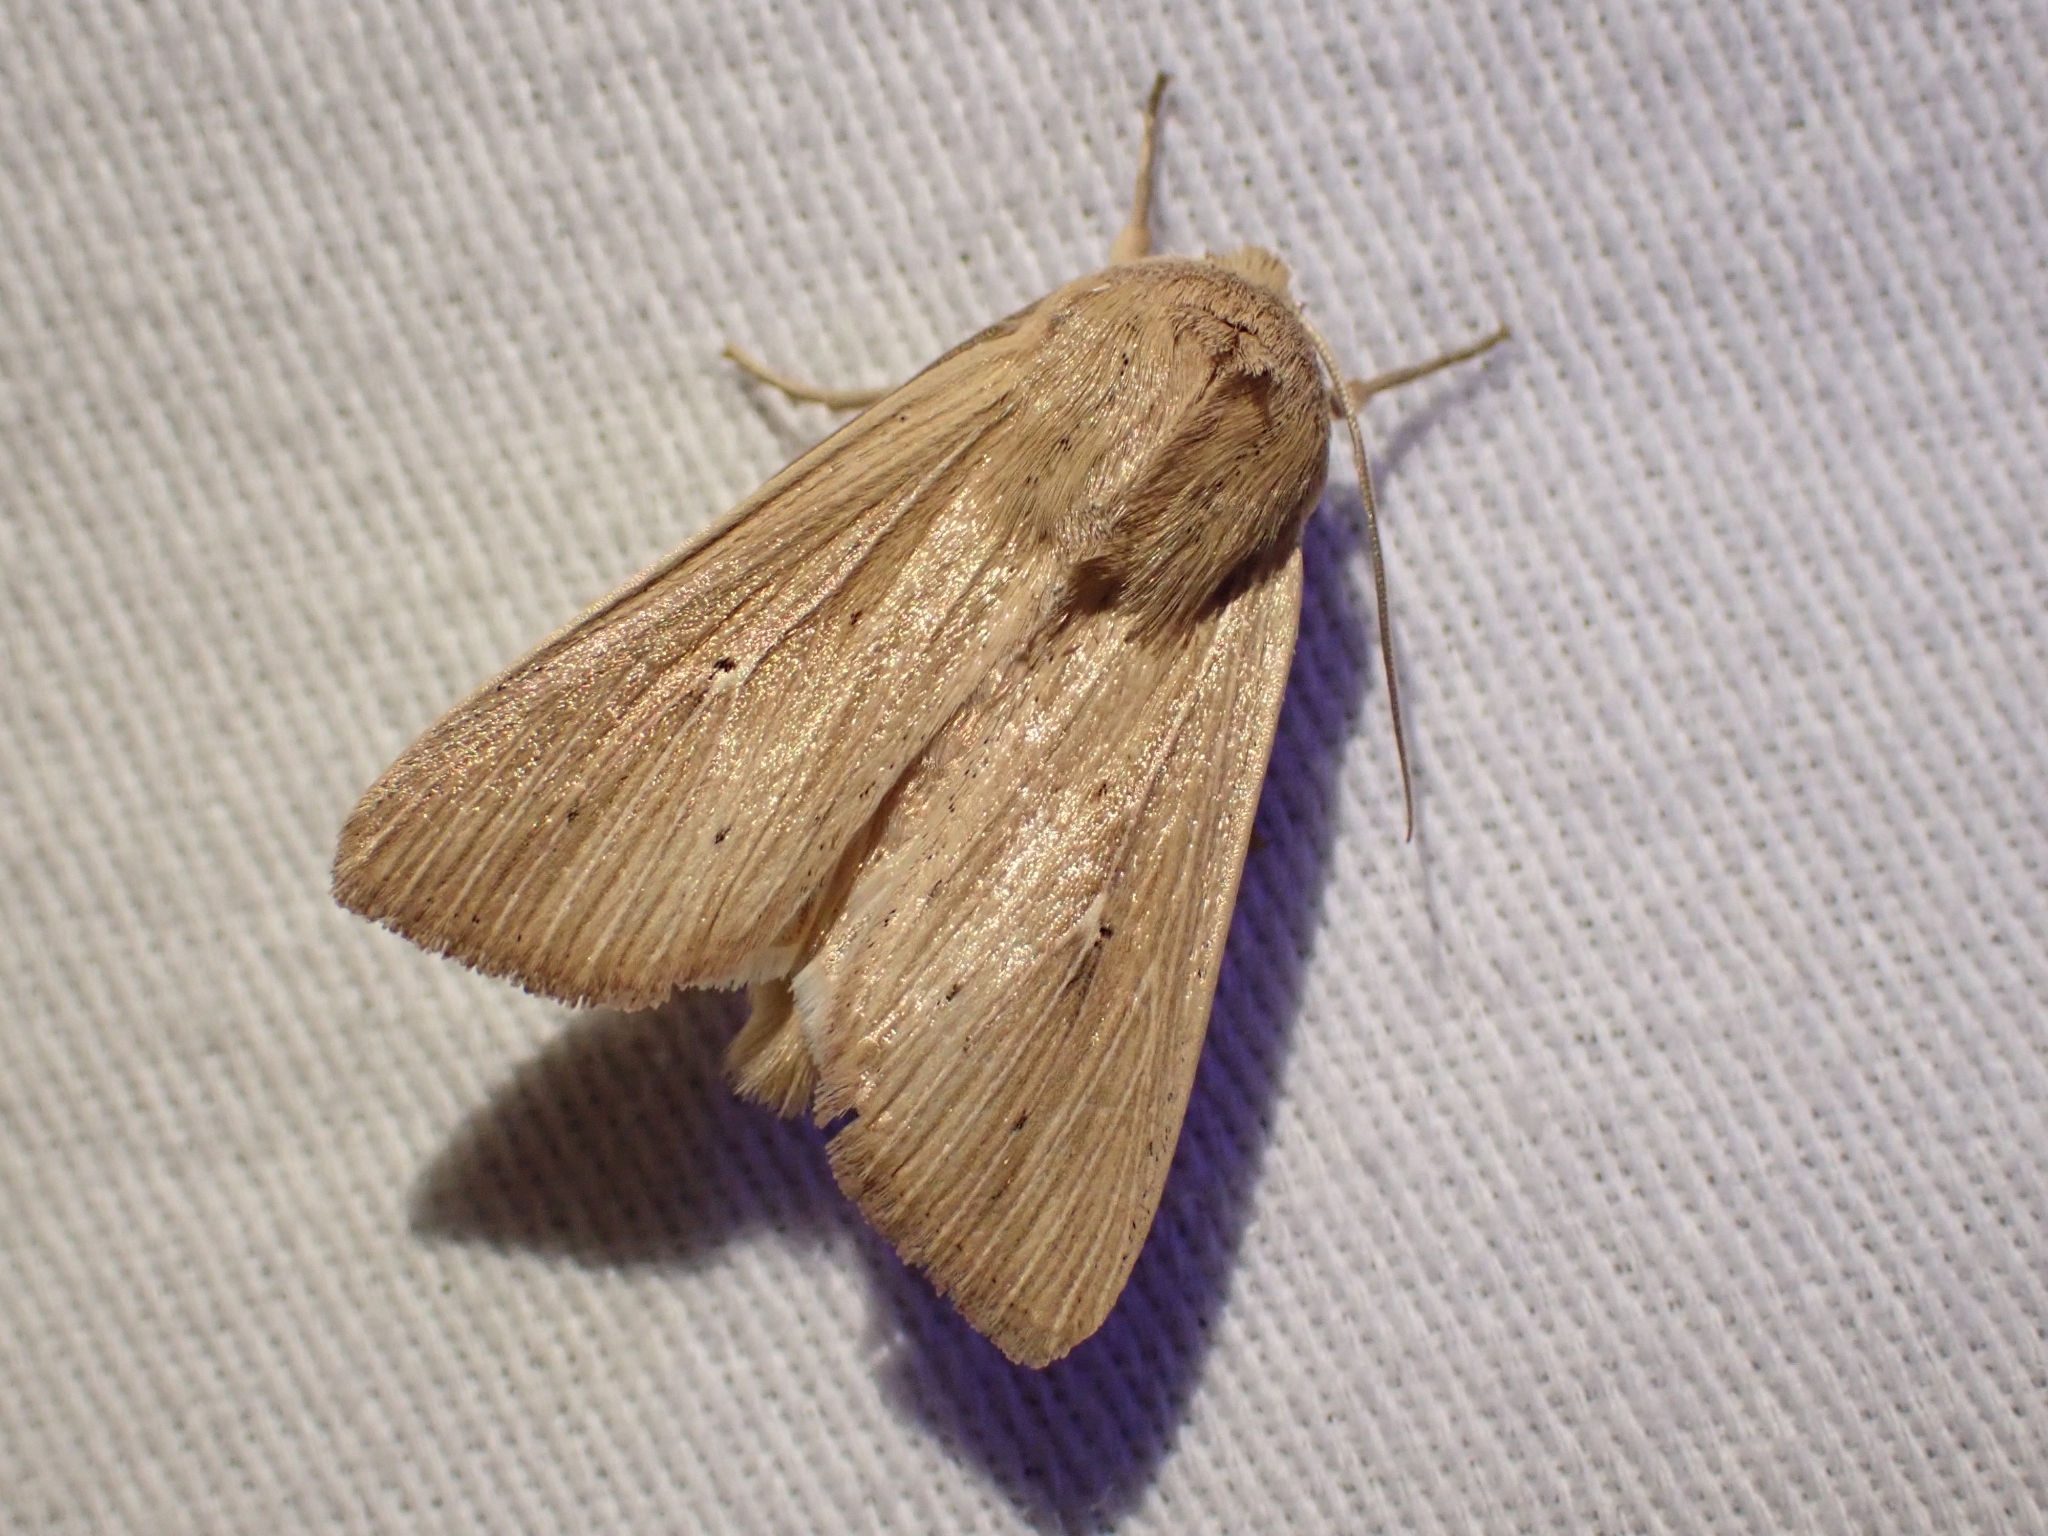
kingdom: Animalia
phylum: Arthropoda
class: Insecta
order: Lepidoptera
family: Noctuidae
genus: Mythimna
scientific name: Mythimna oxygala
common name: Lesser wainscot
